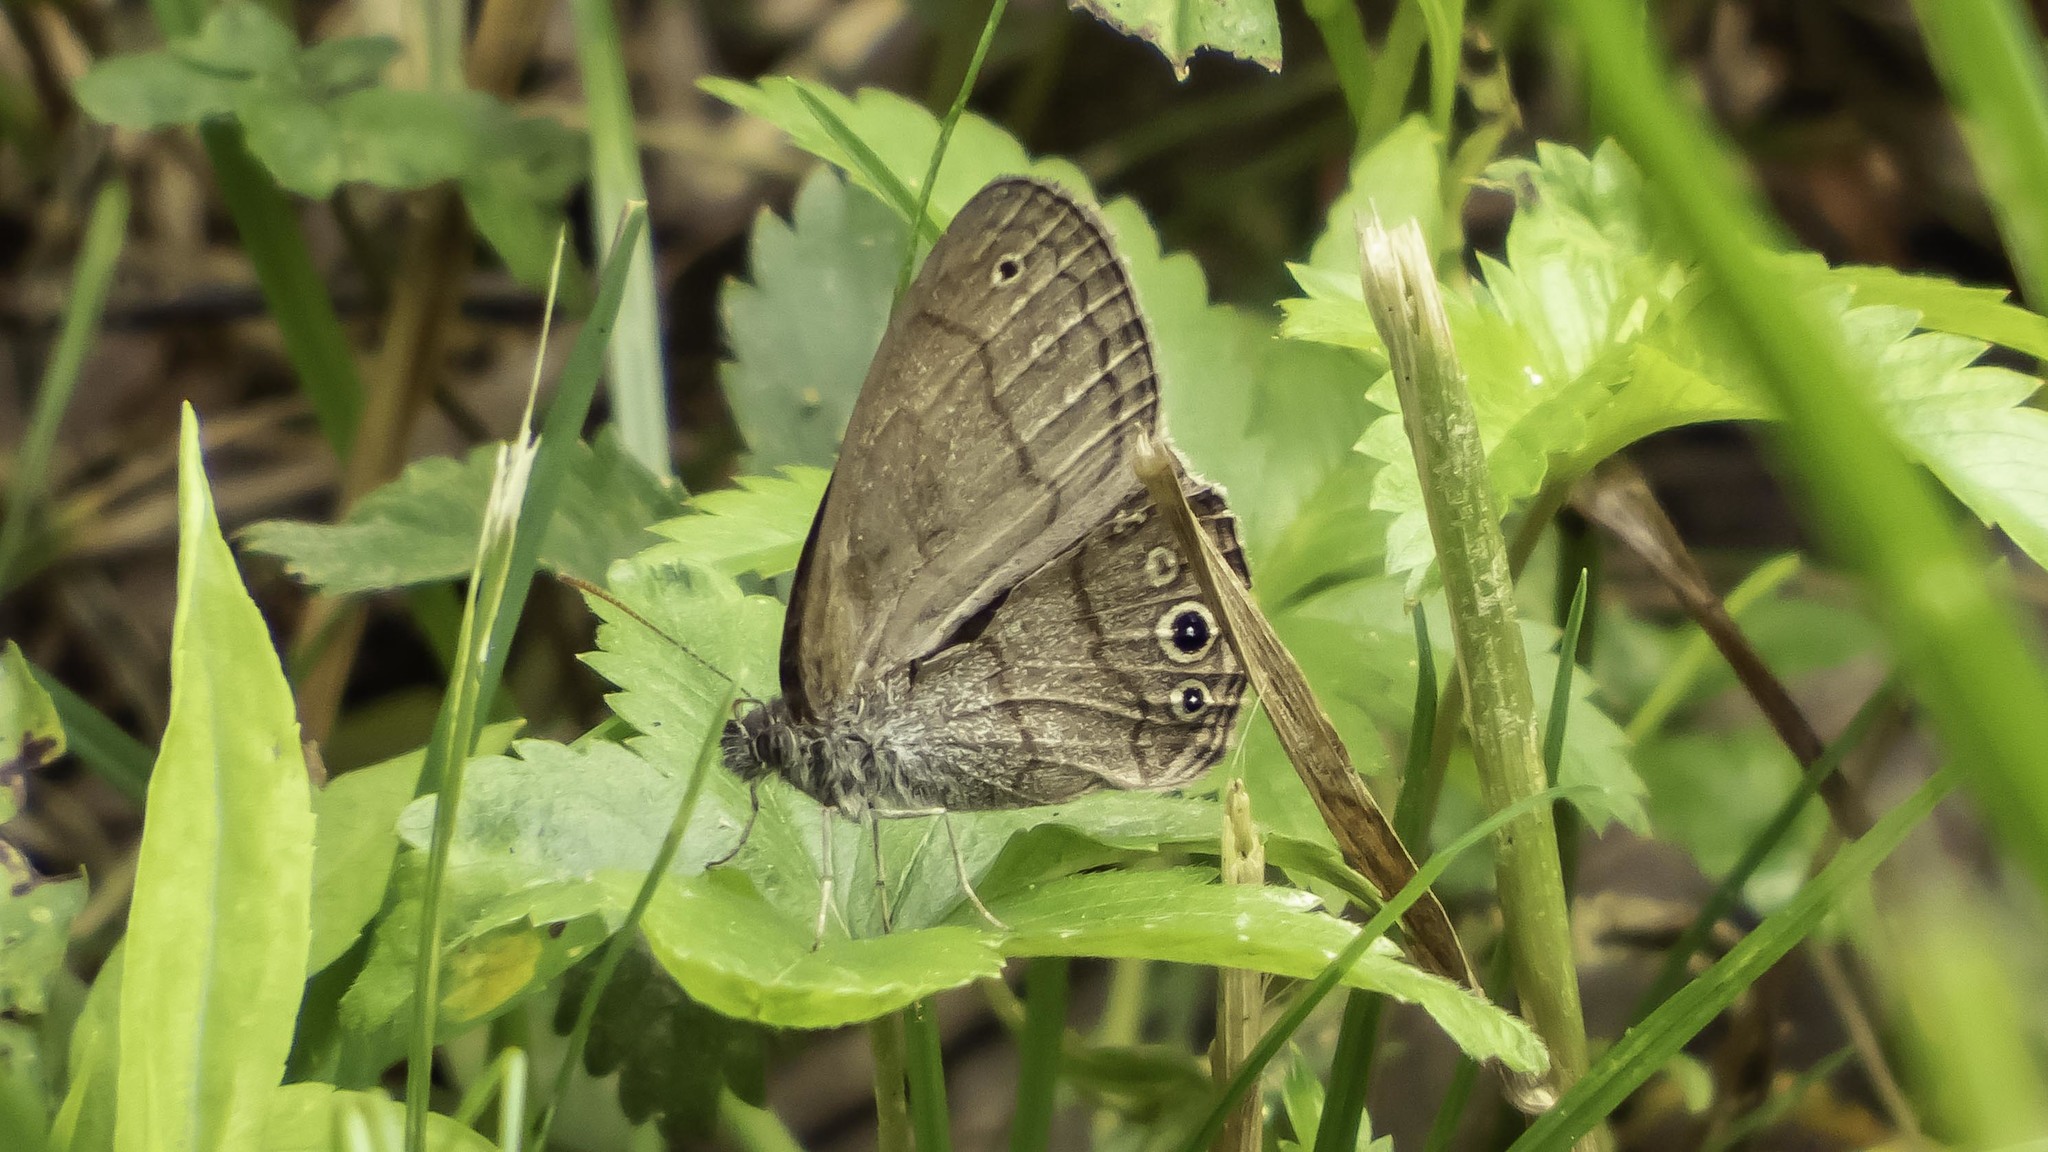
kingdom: Animalia
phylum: Arthropoda
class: Insecta
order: Lepidoptera
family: Nymphalidae
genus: Hermeuptychia
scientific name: Hermeuptychia hermes
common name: Hermes satyr
